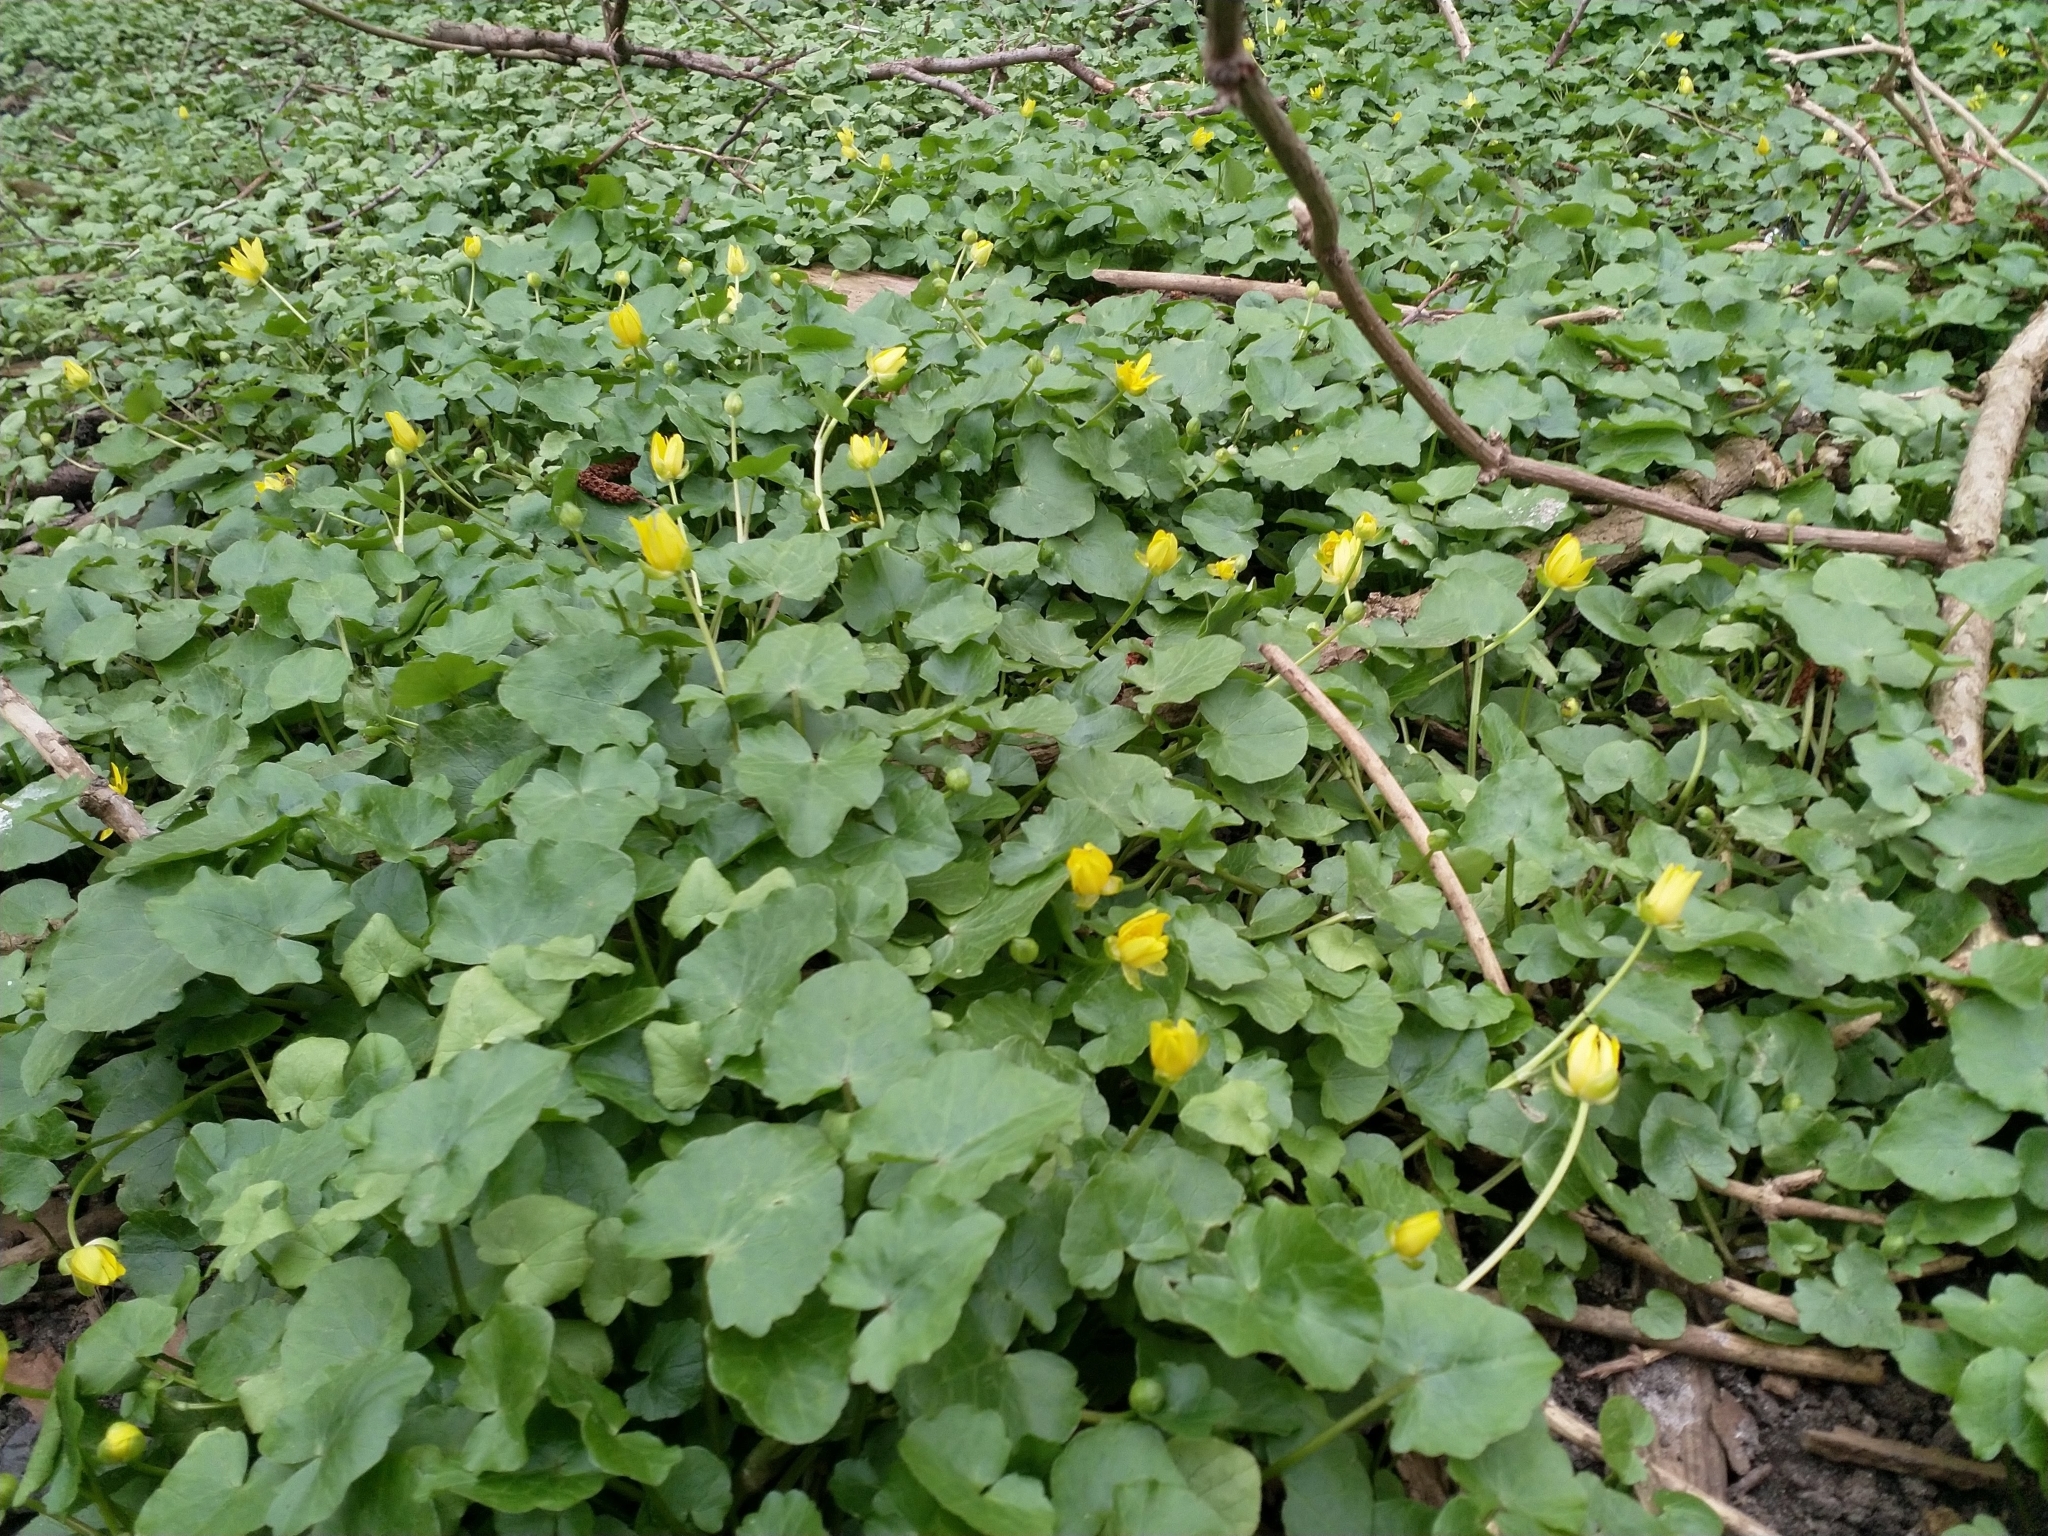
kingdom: Plantae
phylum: Tracheophyta
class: Magnoliopsida
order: Ranunculales
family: Ranunculaceae
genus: Ficaria
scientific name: Ficaria verna
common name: Lesser celandine
